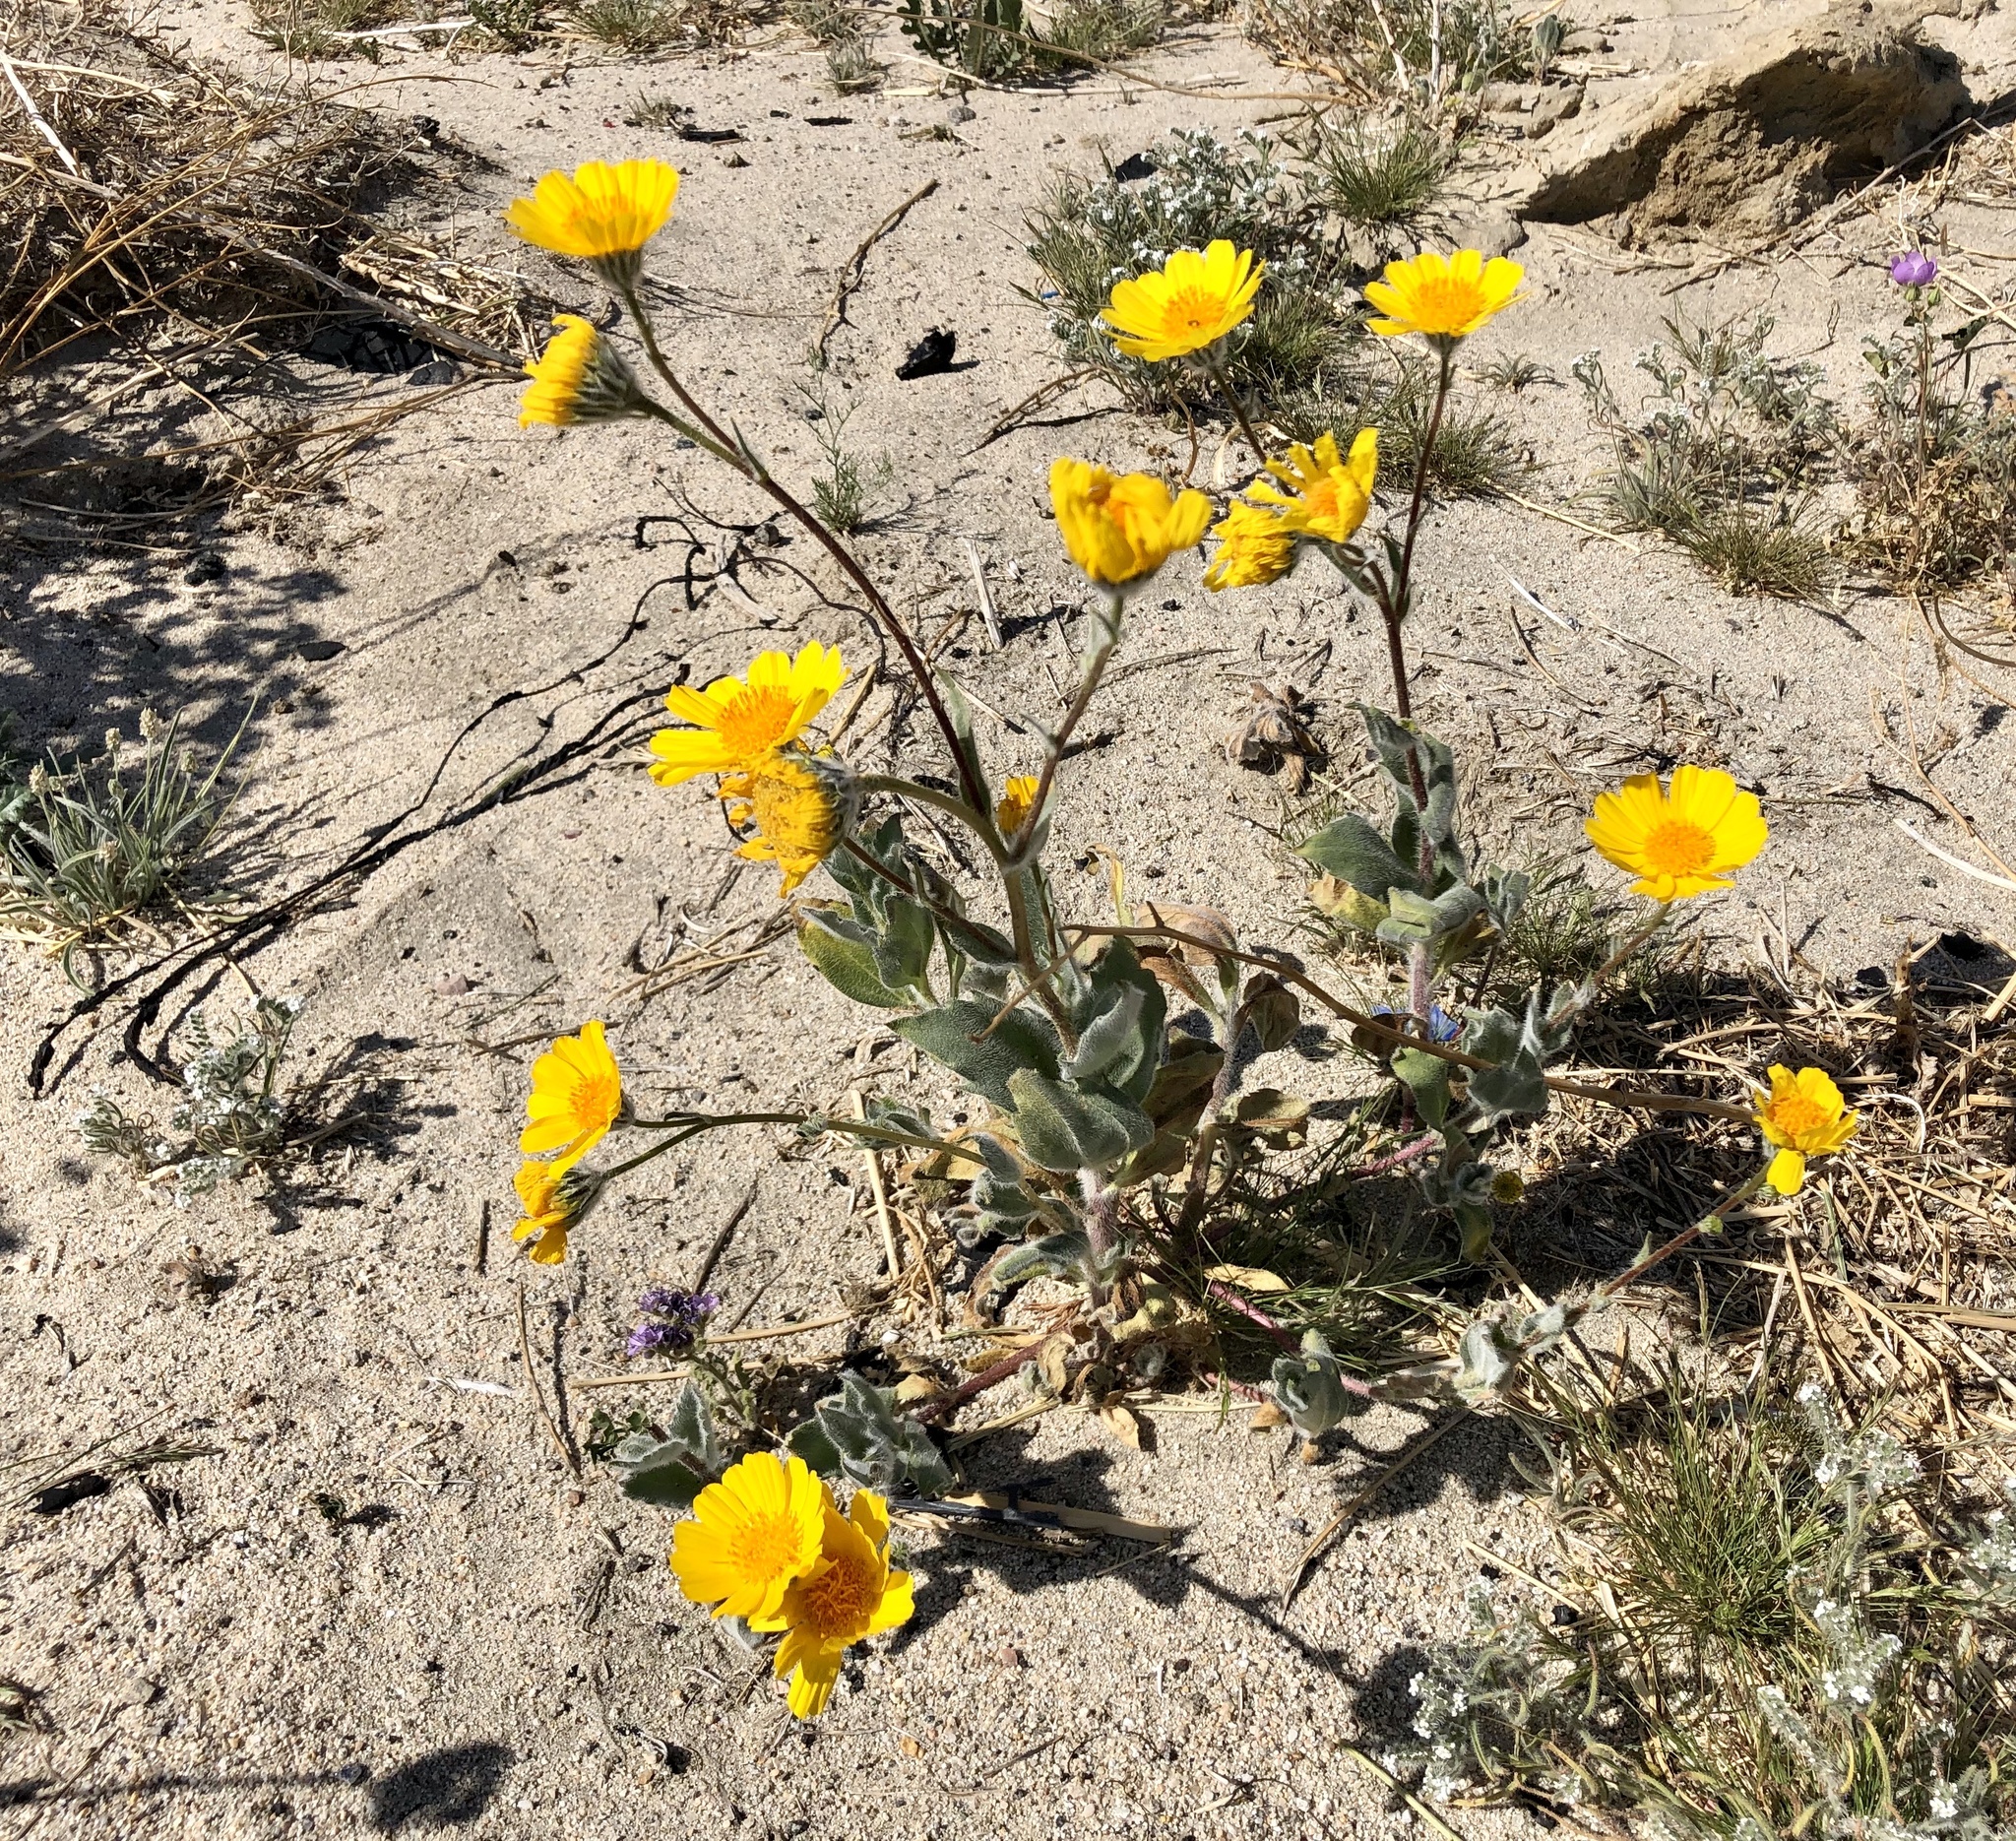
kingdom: Plantae
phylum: Tracheophyta
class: Magnoliopsida
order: Asterales
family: Asteraceae
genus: Geraea
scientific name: Geraea canescens
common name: Desert-gold
